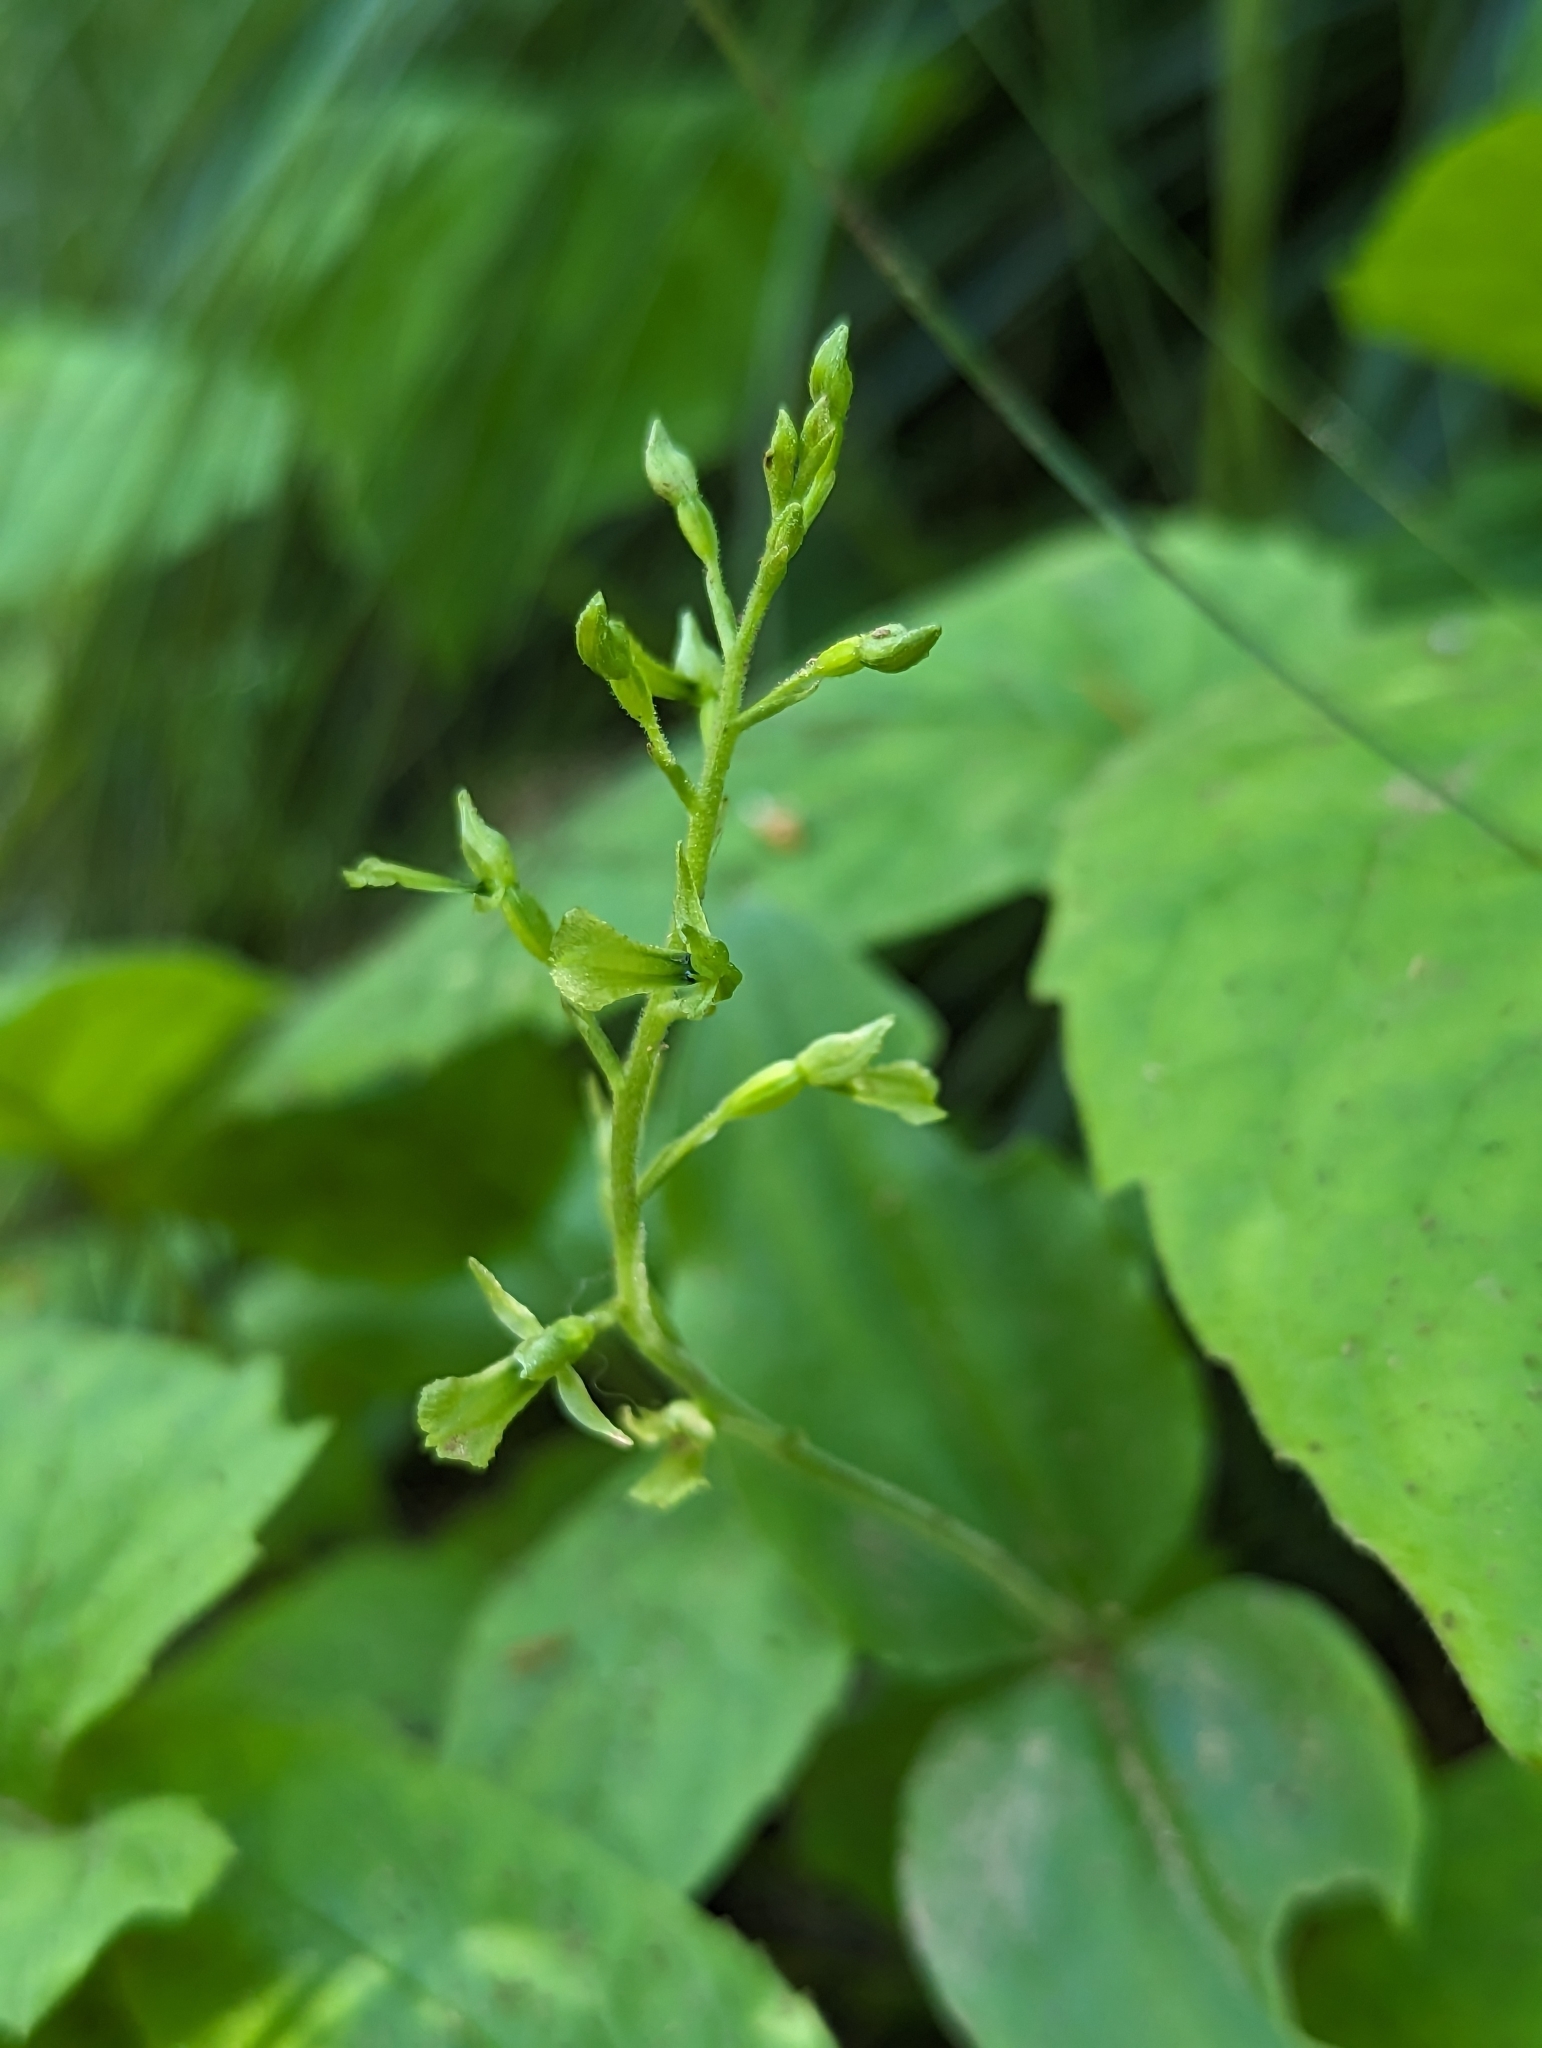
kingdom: Plantae
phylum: Tracheophyta
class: Liliopsida
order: Asparagales
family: Orchidaceae
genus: Neottia
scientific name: Neottia banksiana
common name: Northwestern twayblade
